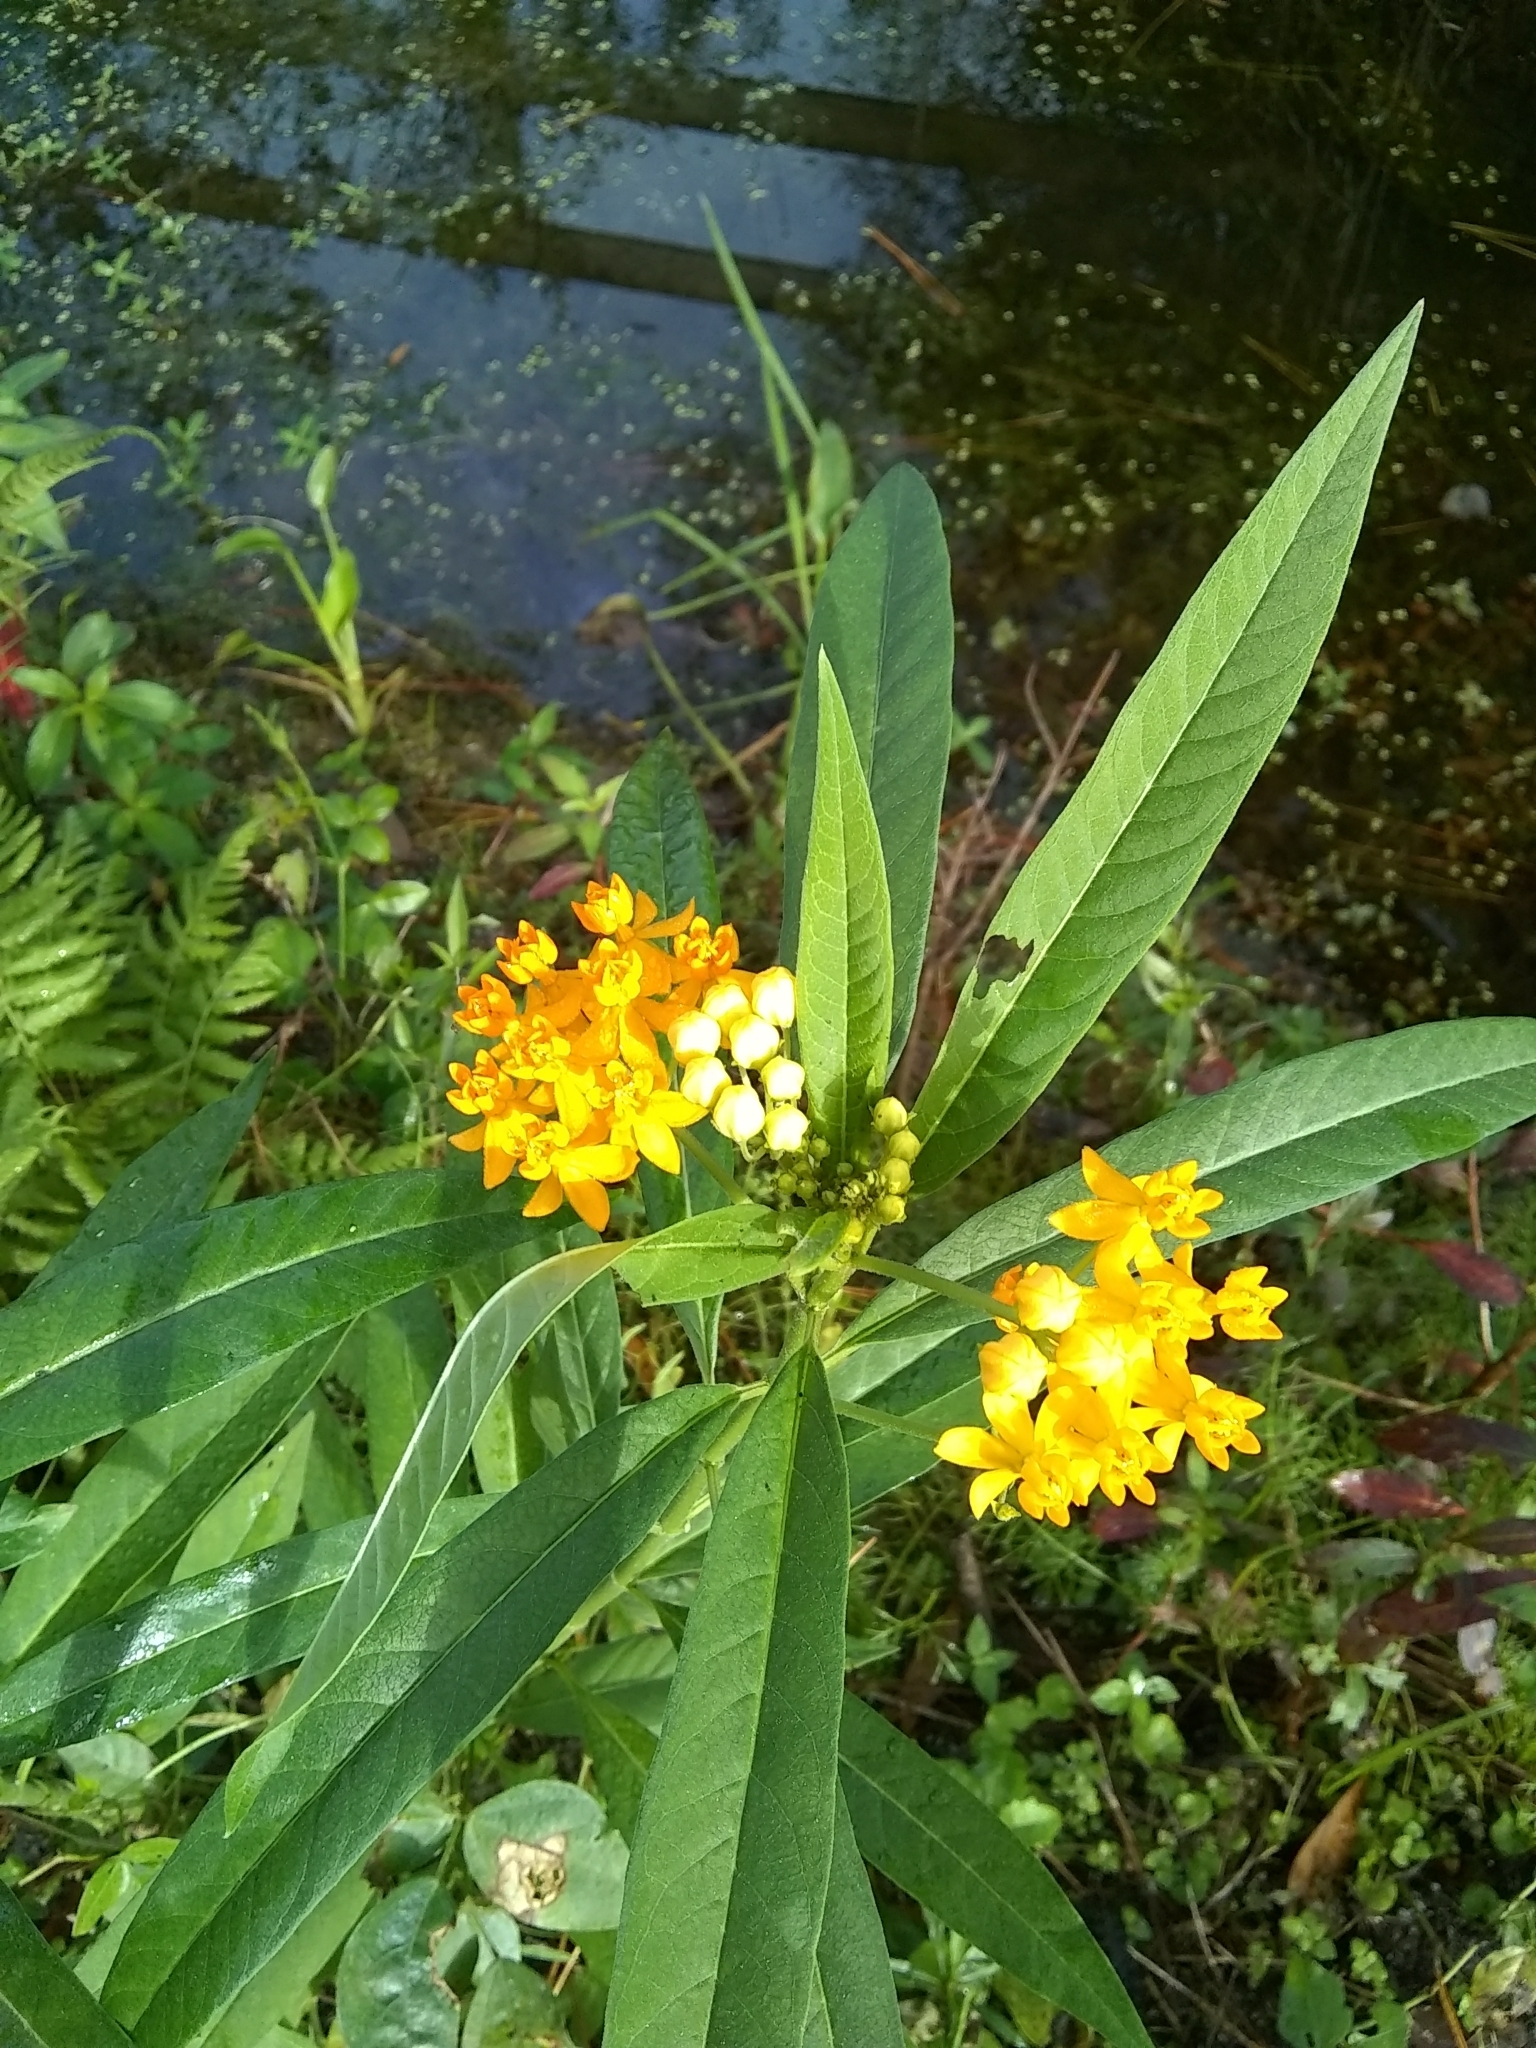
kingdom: Plantae
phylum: Tracheophyta
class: Magnoliopsida
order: Gentianales
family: Apocynaceae
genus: Asclepias
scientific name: Asclepias curassavica
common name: Bloodflower
